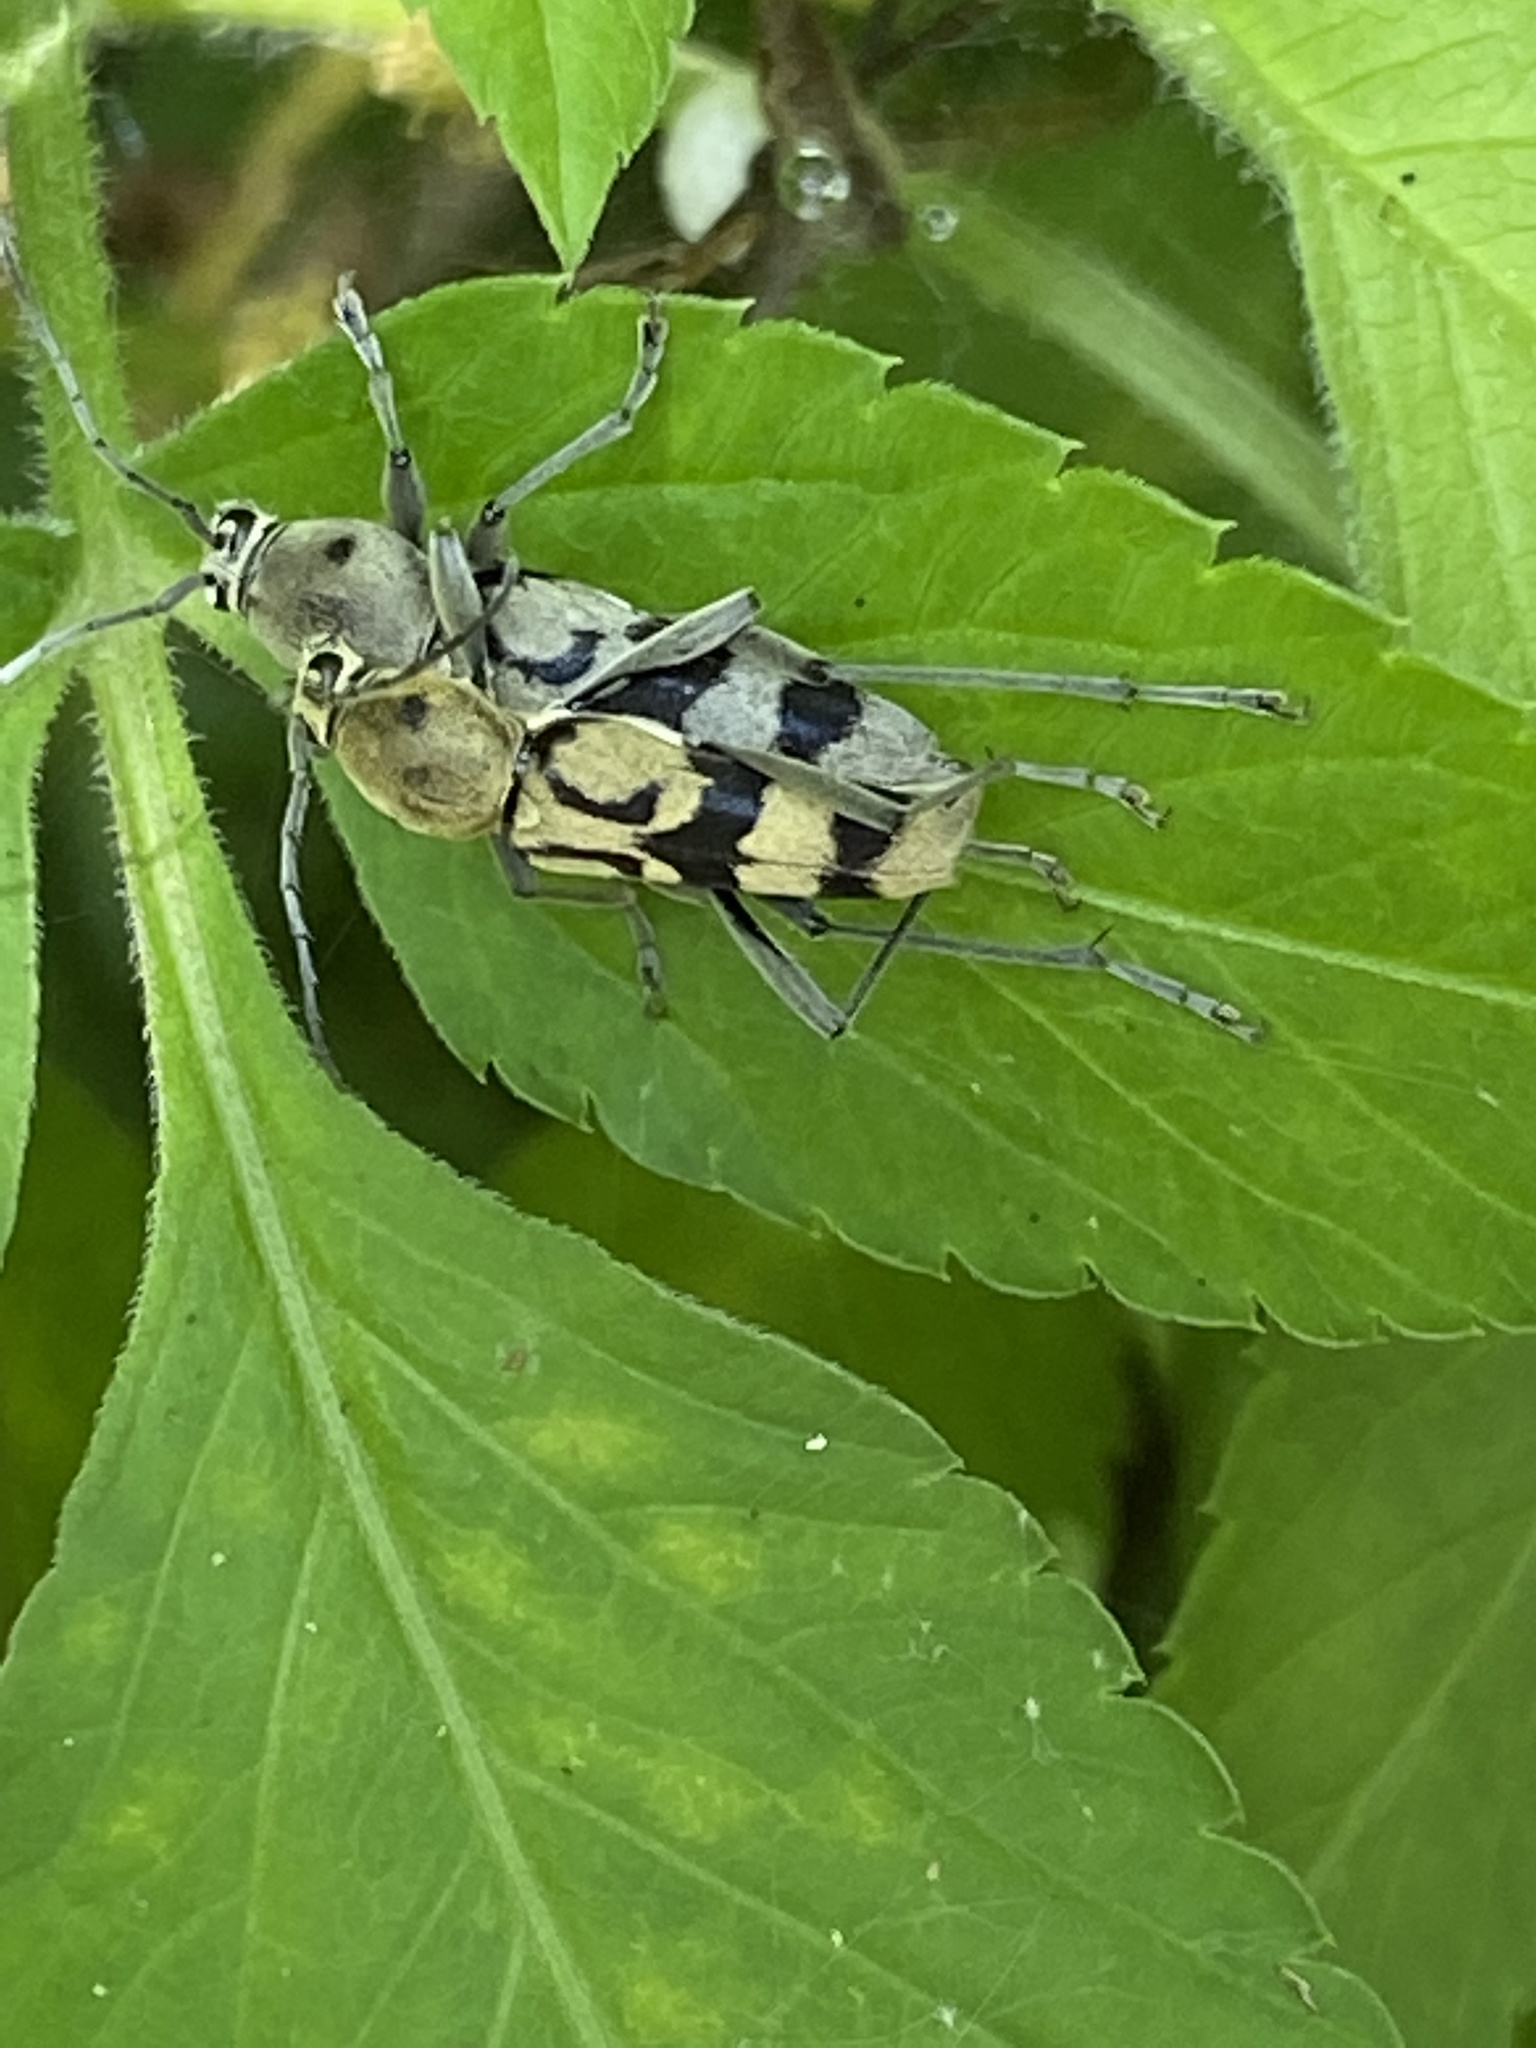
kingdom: Animalia
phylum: Arthropoda
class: Insecta
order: Coleoptera
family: Cerambycidae
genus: Chlorophorus
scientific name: Chlorophorus signaticollis
